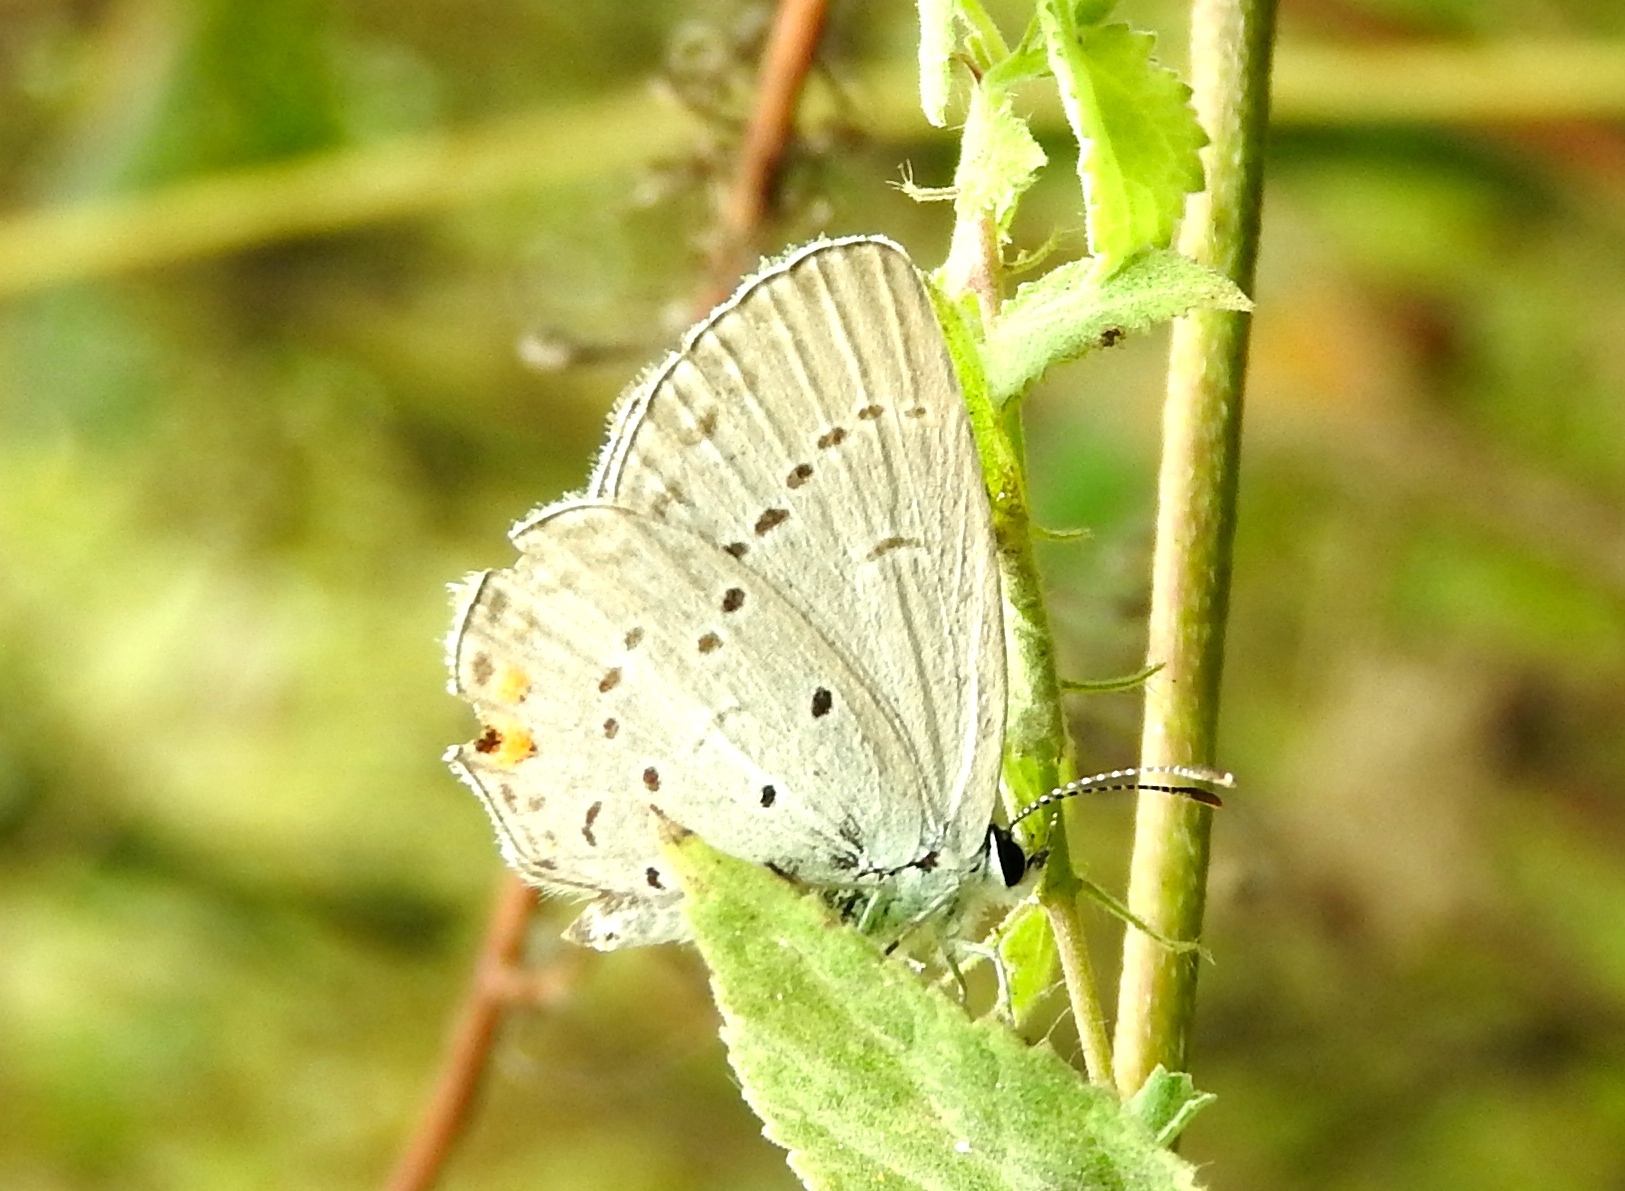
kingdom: Animalia
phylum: Arthropoda
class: Insecta
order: Lepidoptera
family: Lycaenidae
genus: Elkalyce
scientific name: Elkalyce comyntas
